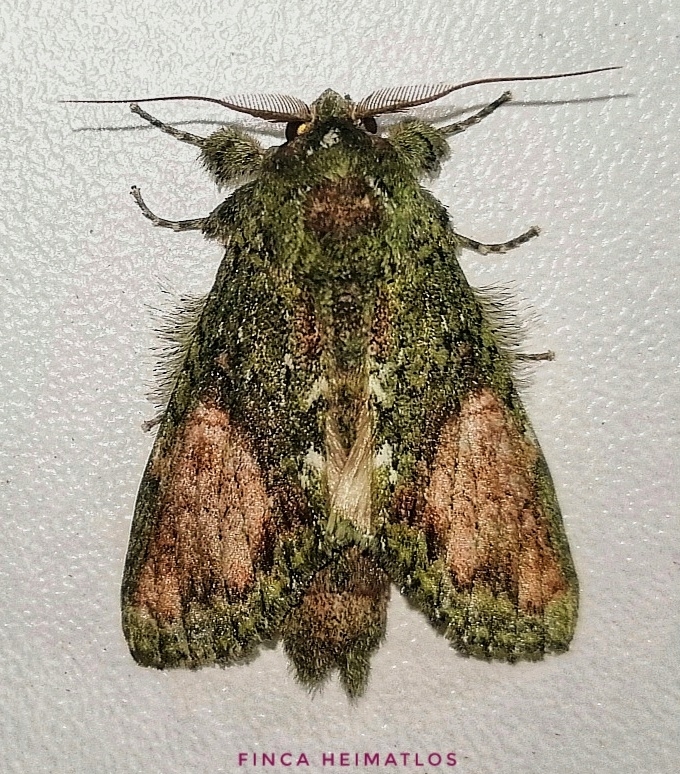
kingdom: Animalia
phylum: Arthropoda
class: Insecta
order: Lepidoptera
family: Notodontidae
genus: Disphragis
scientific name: Disphragis mullinsi
